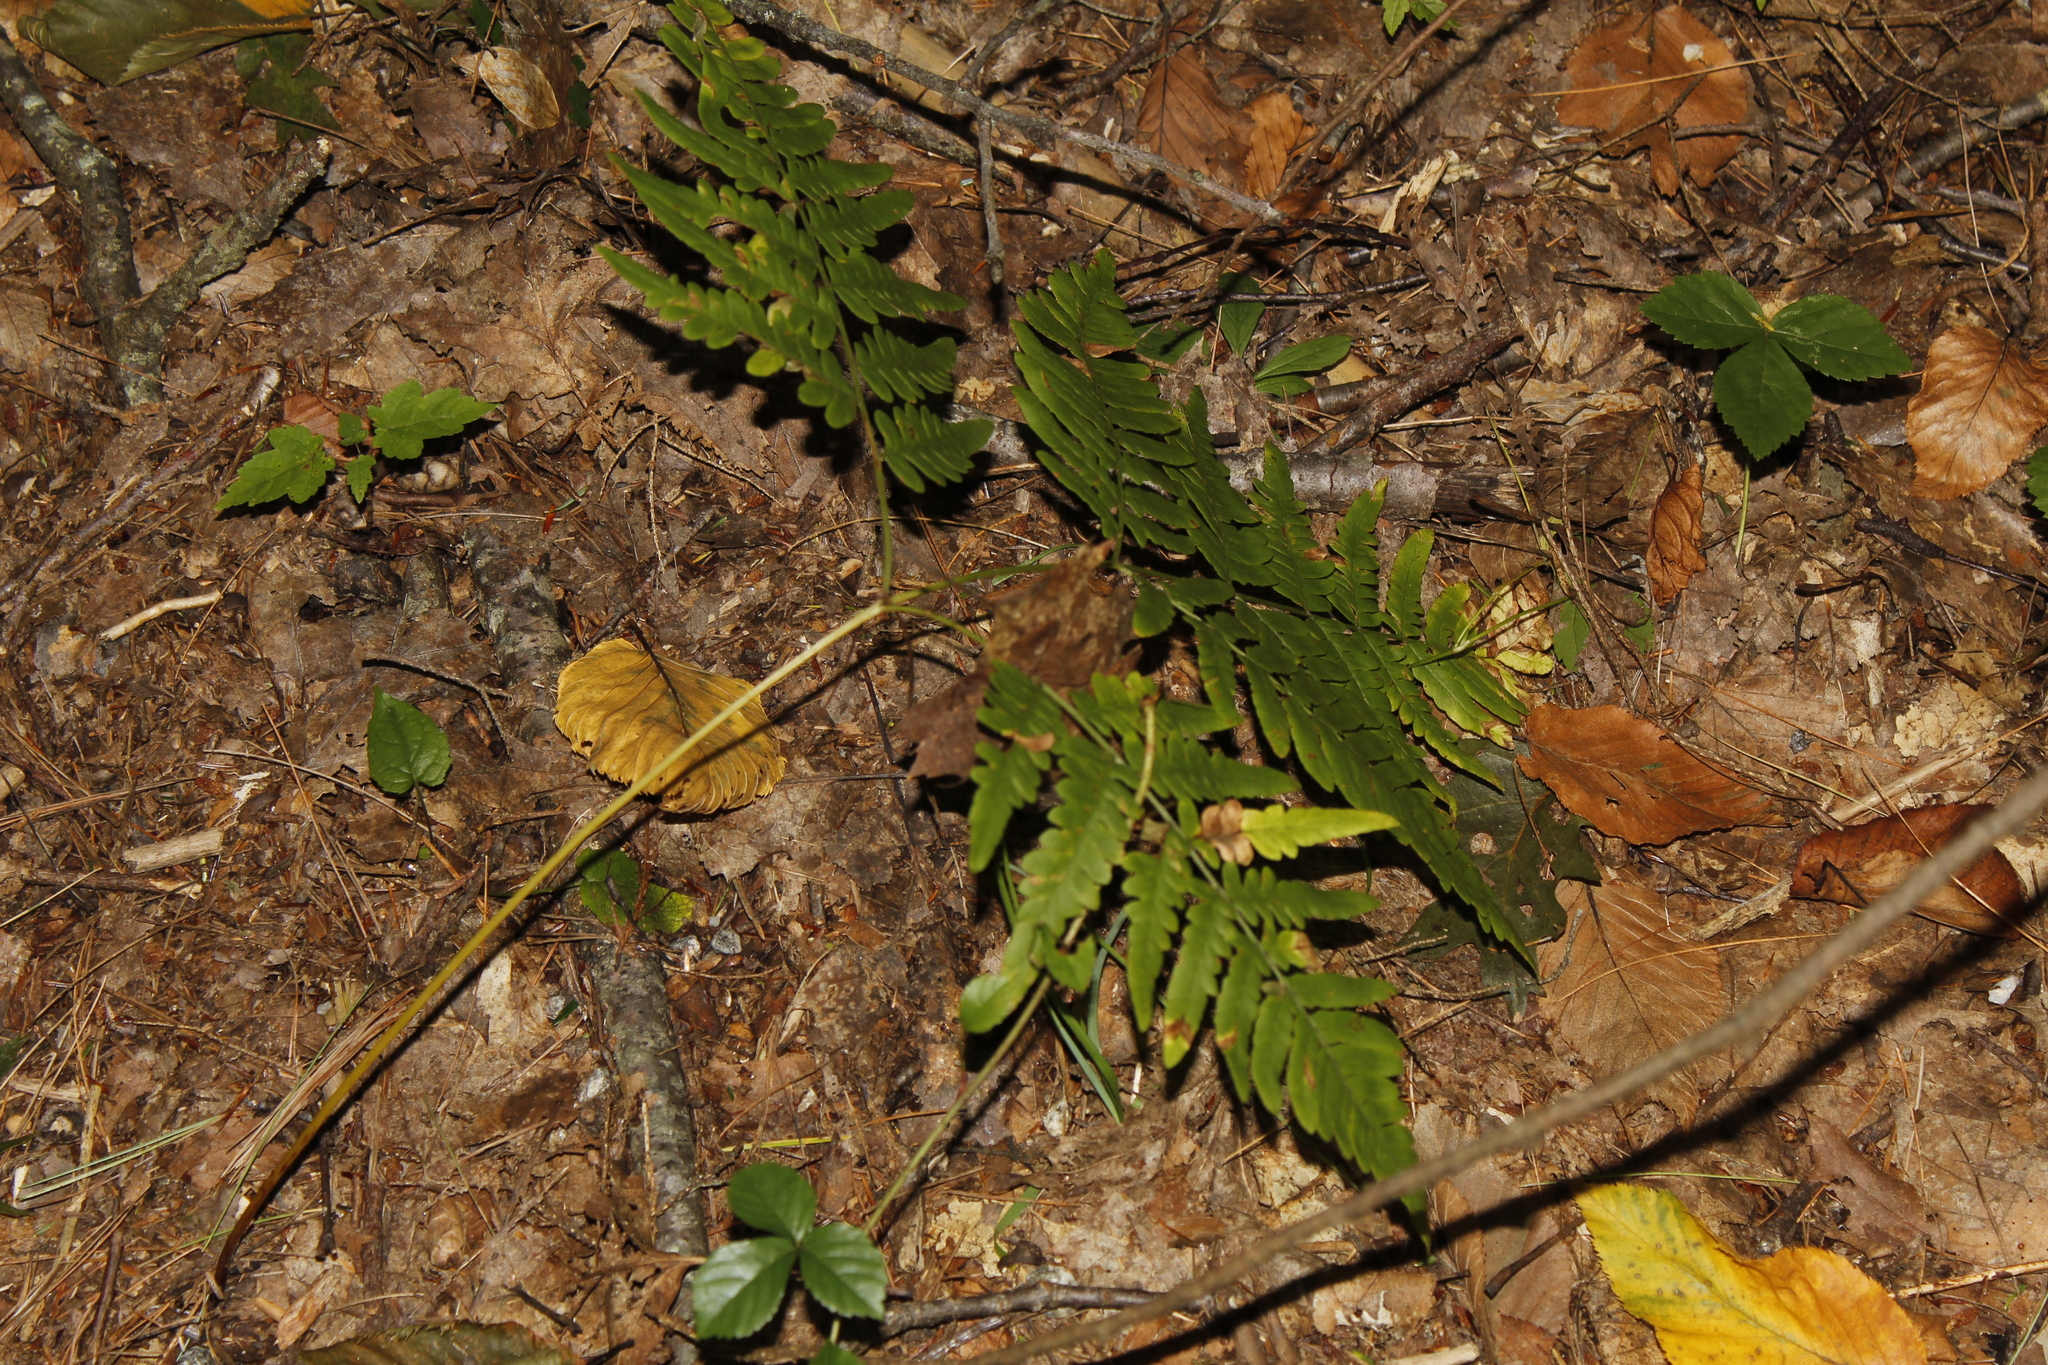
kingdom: Plantae
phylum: Tracheophyta
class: Polypodiopsida
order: Polypodiales
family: Dennstaedtiaceae
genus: Pteridium
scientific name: Pteridium aquilinum
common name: Bracken
